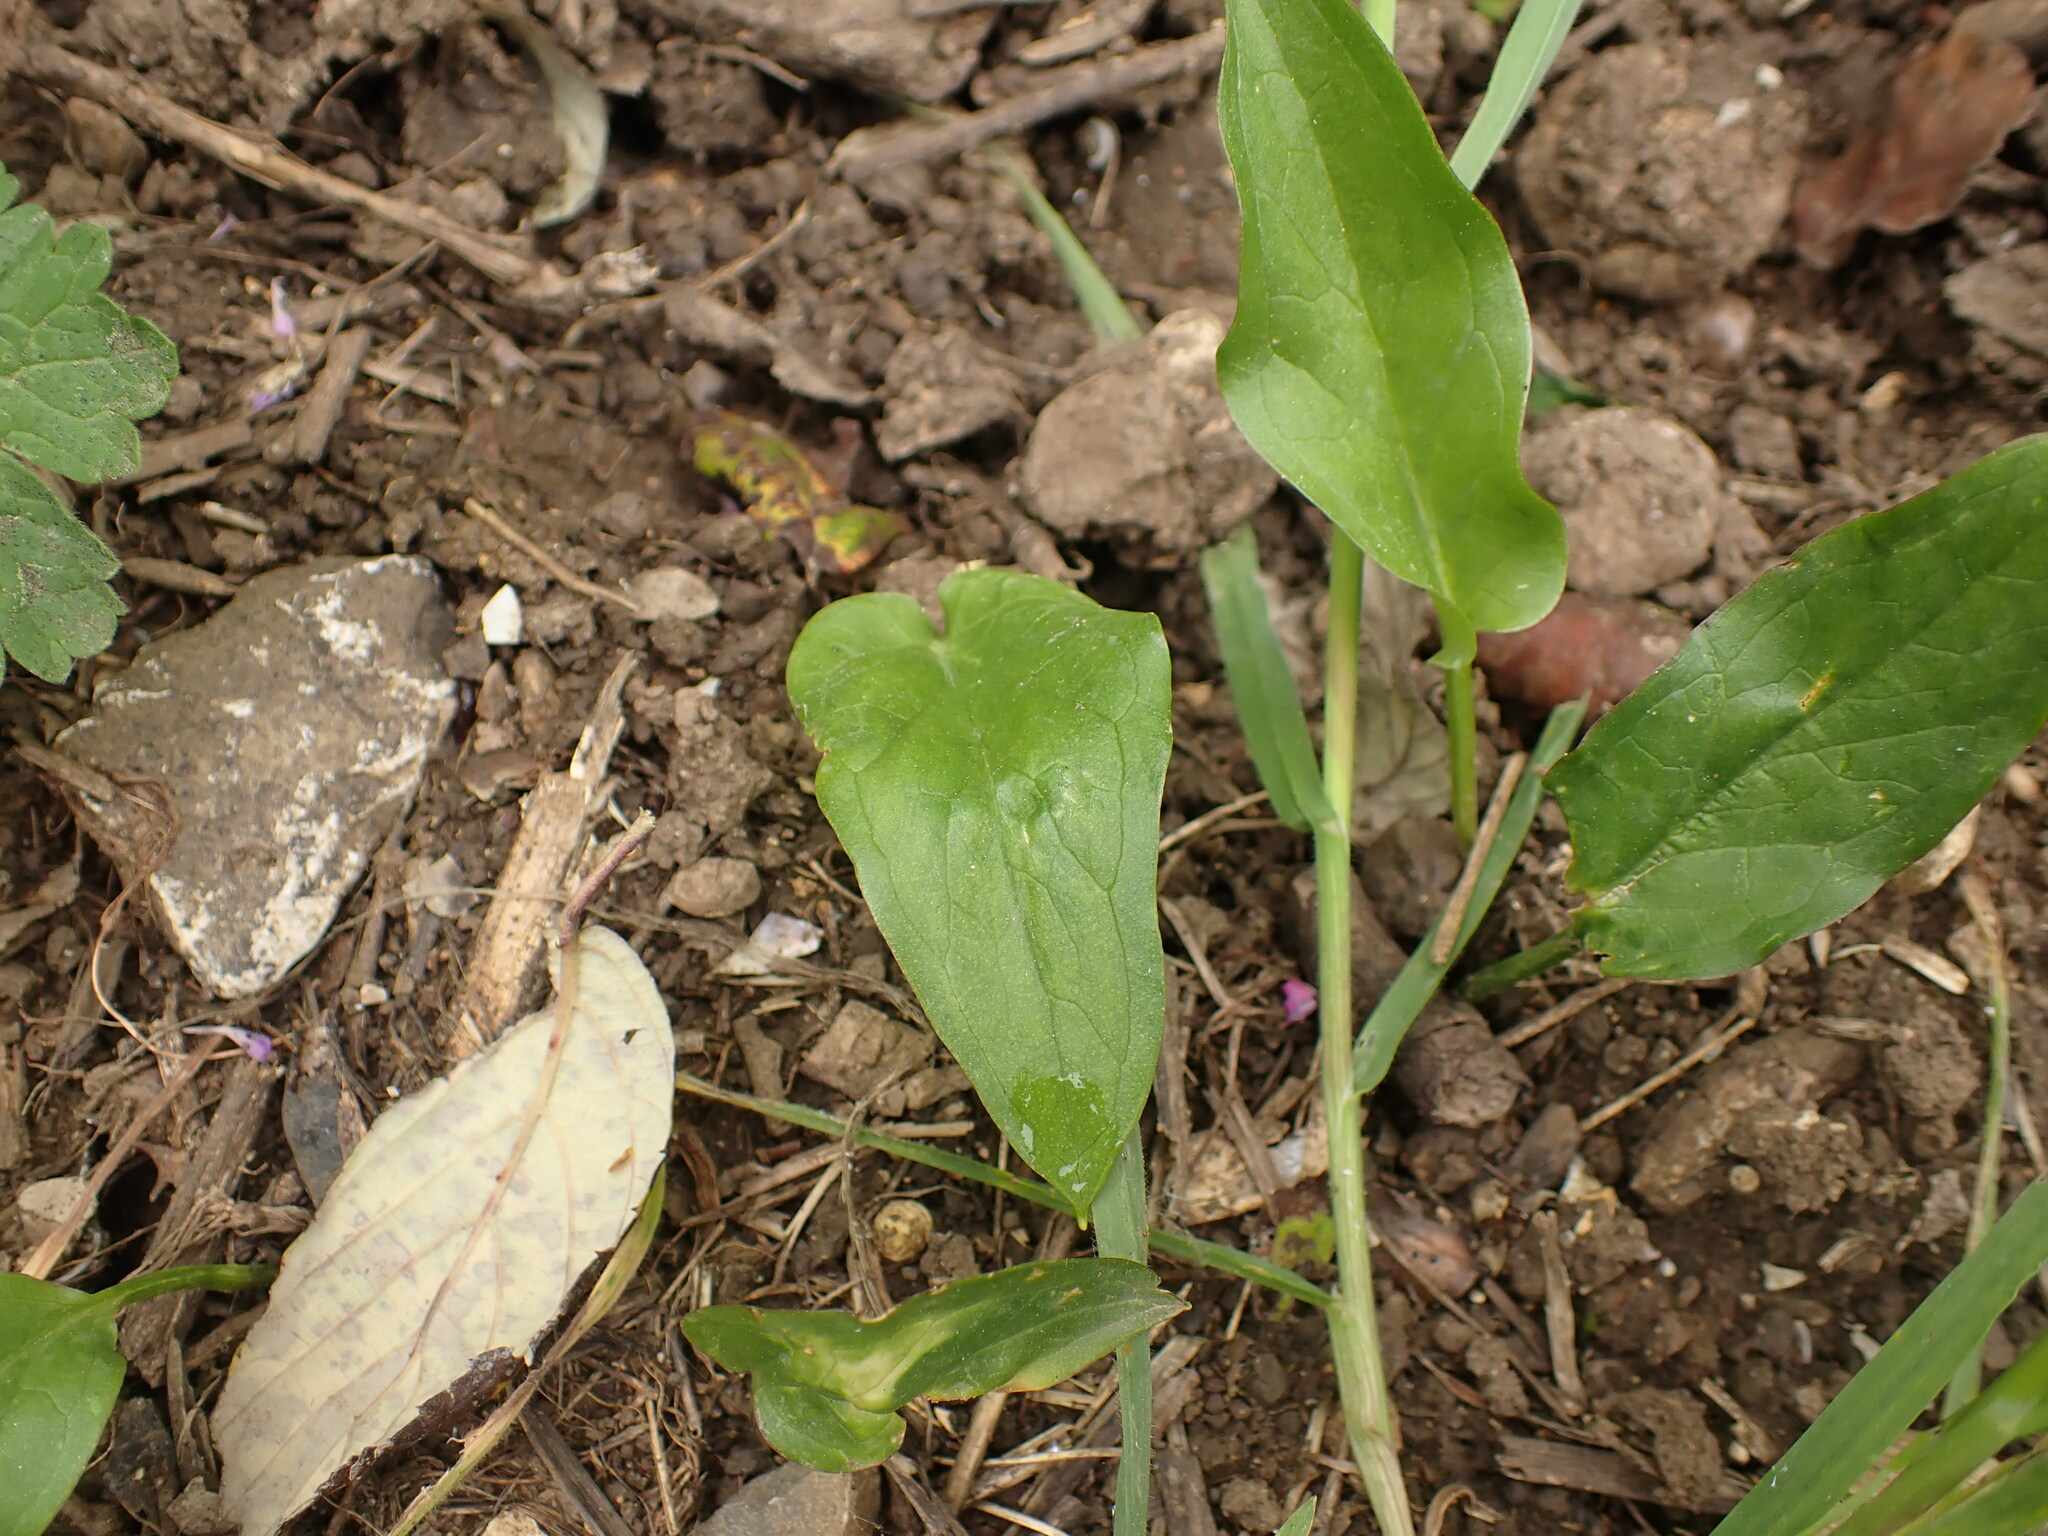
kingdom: Plantae
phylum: Tracheophyta
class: Liliopsida
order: Alismatales
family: Araceae
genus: Arum
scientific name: Arum italicum
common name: Italian lords-and-ladies
